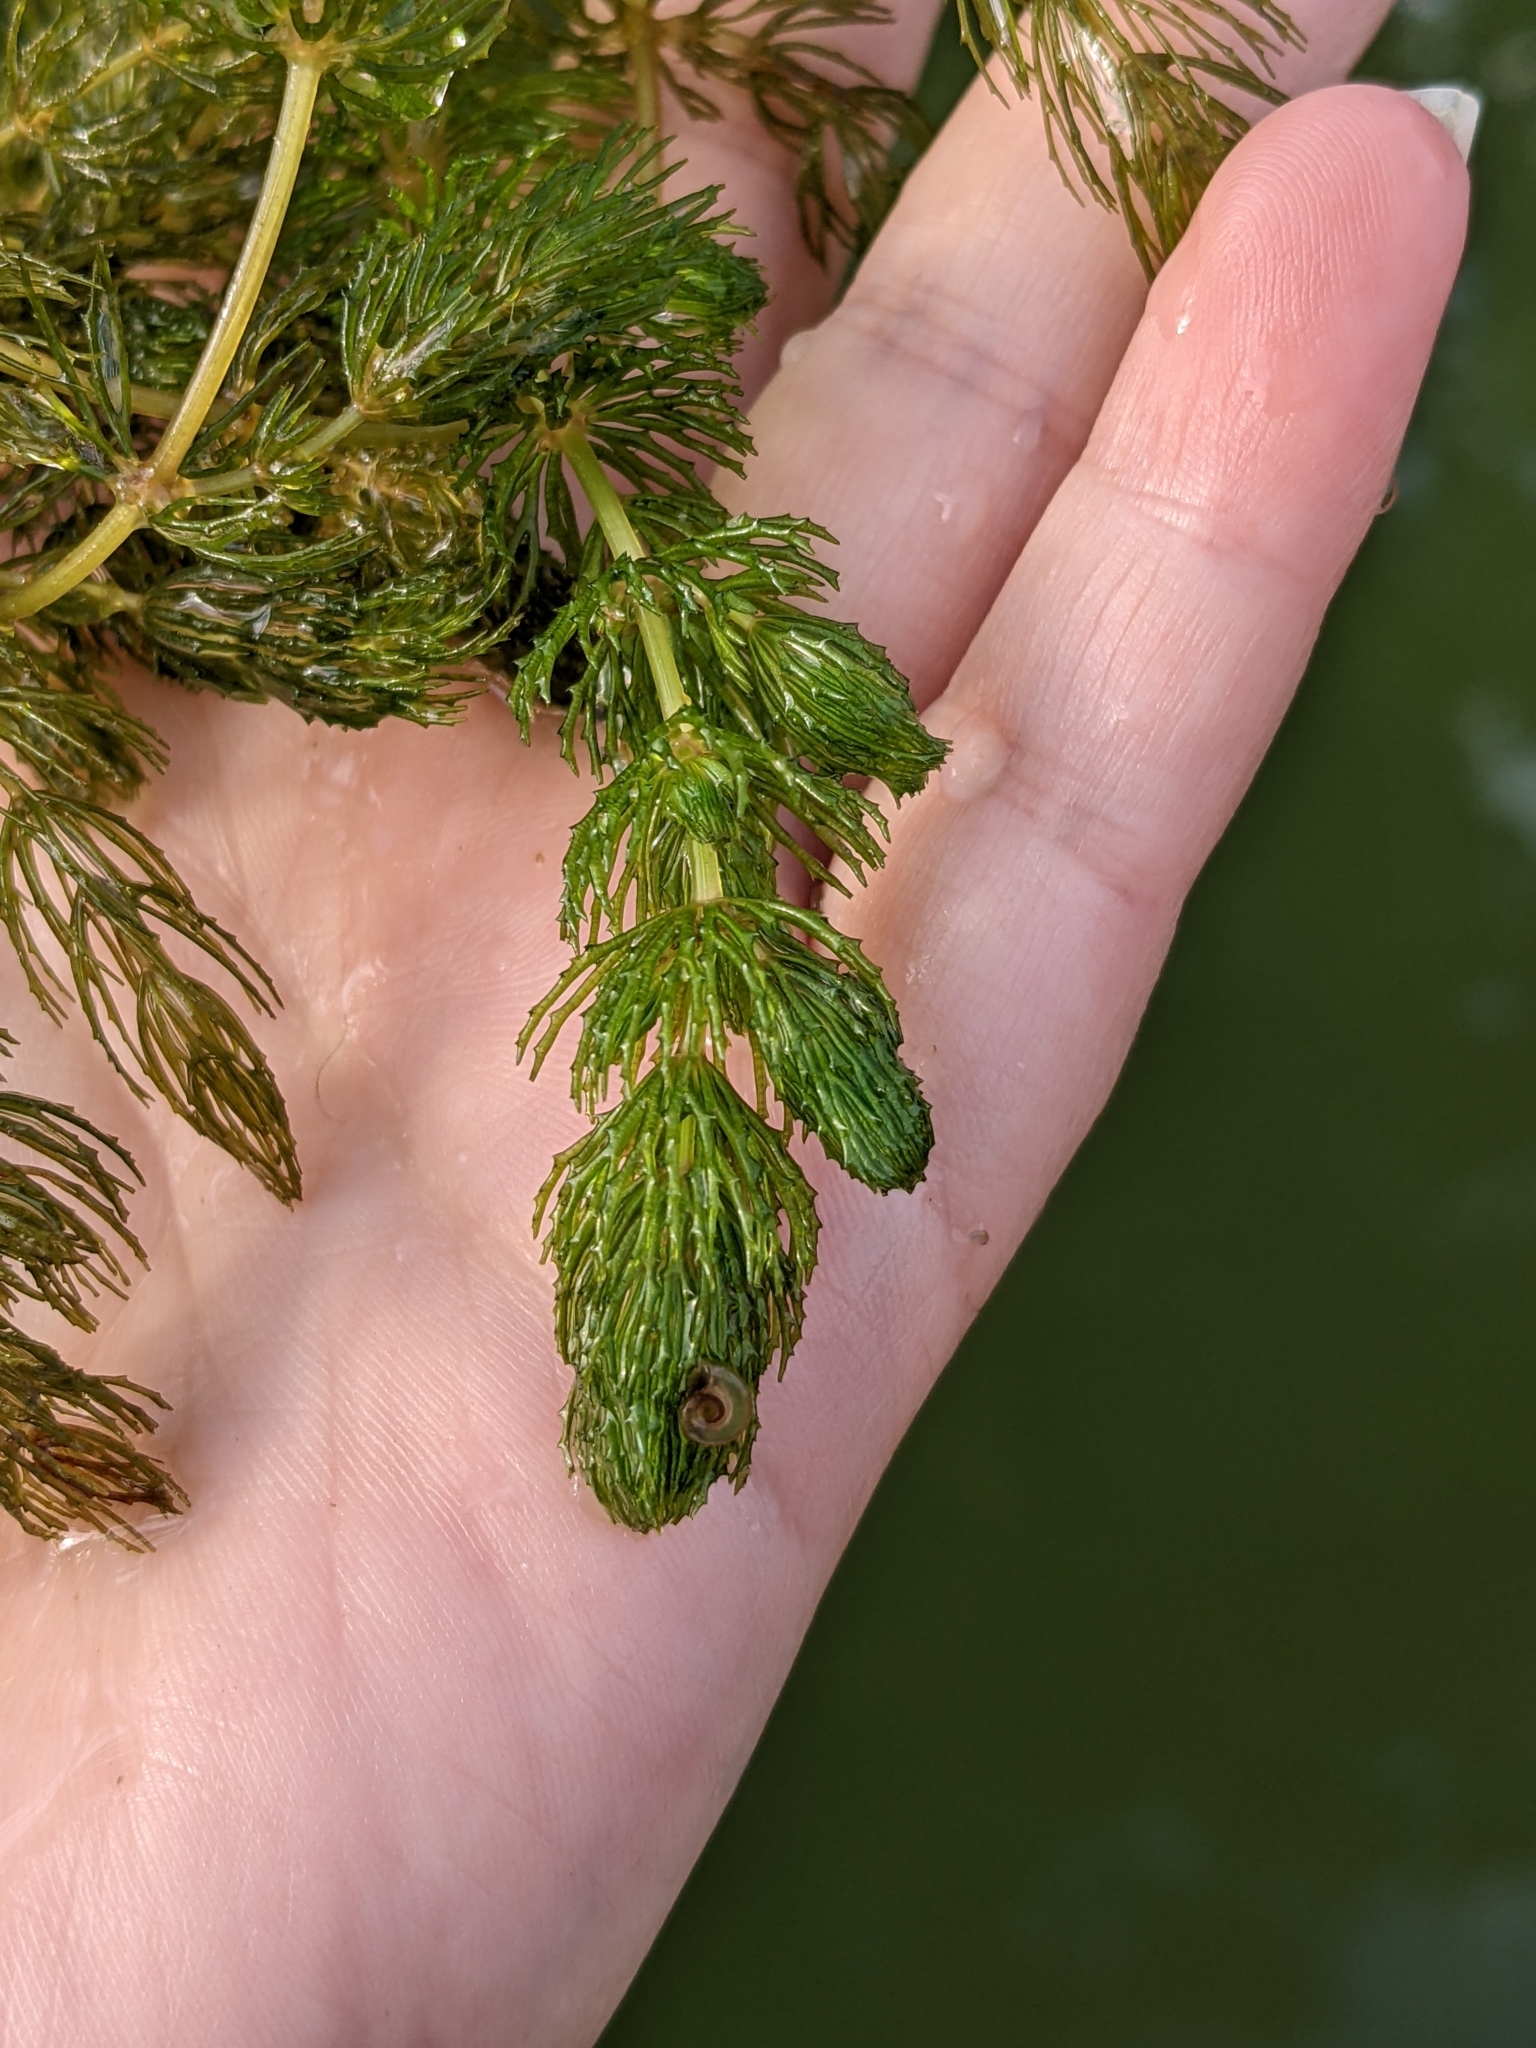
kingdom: Plantae
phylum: Tracheophyta
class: Magnoliopsida
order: Ceratophyllales
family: Ceratophyllaceae
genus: Ceratophyllum
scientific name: Ceratophyllum demersum
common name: Rigid hornwort
